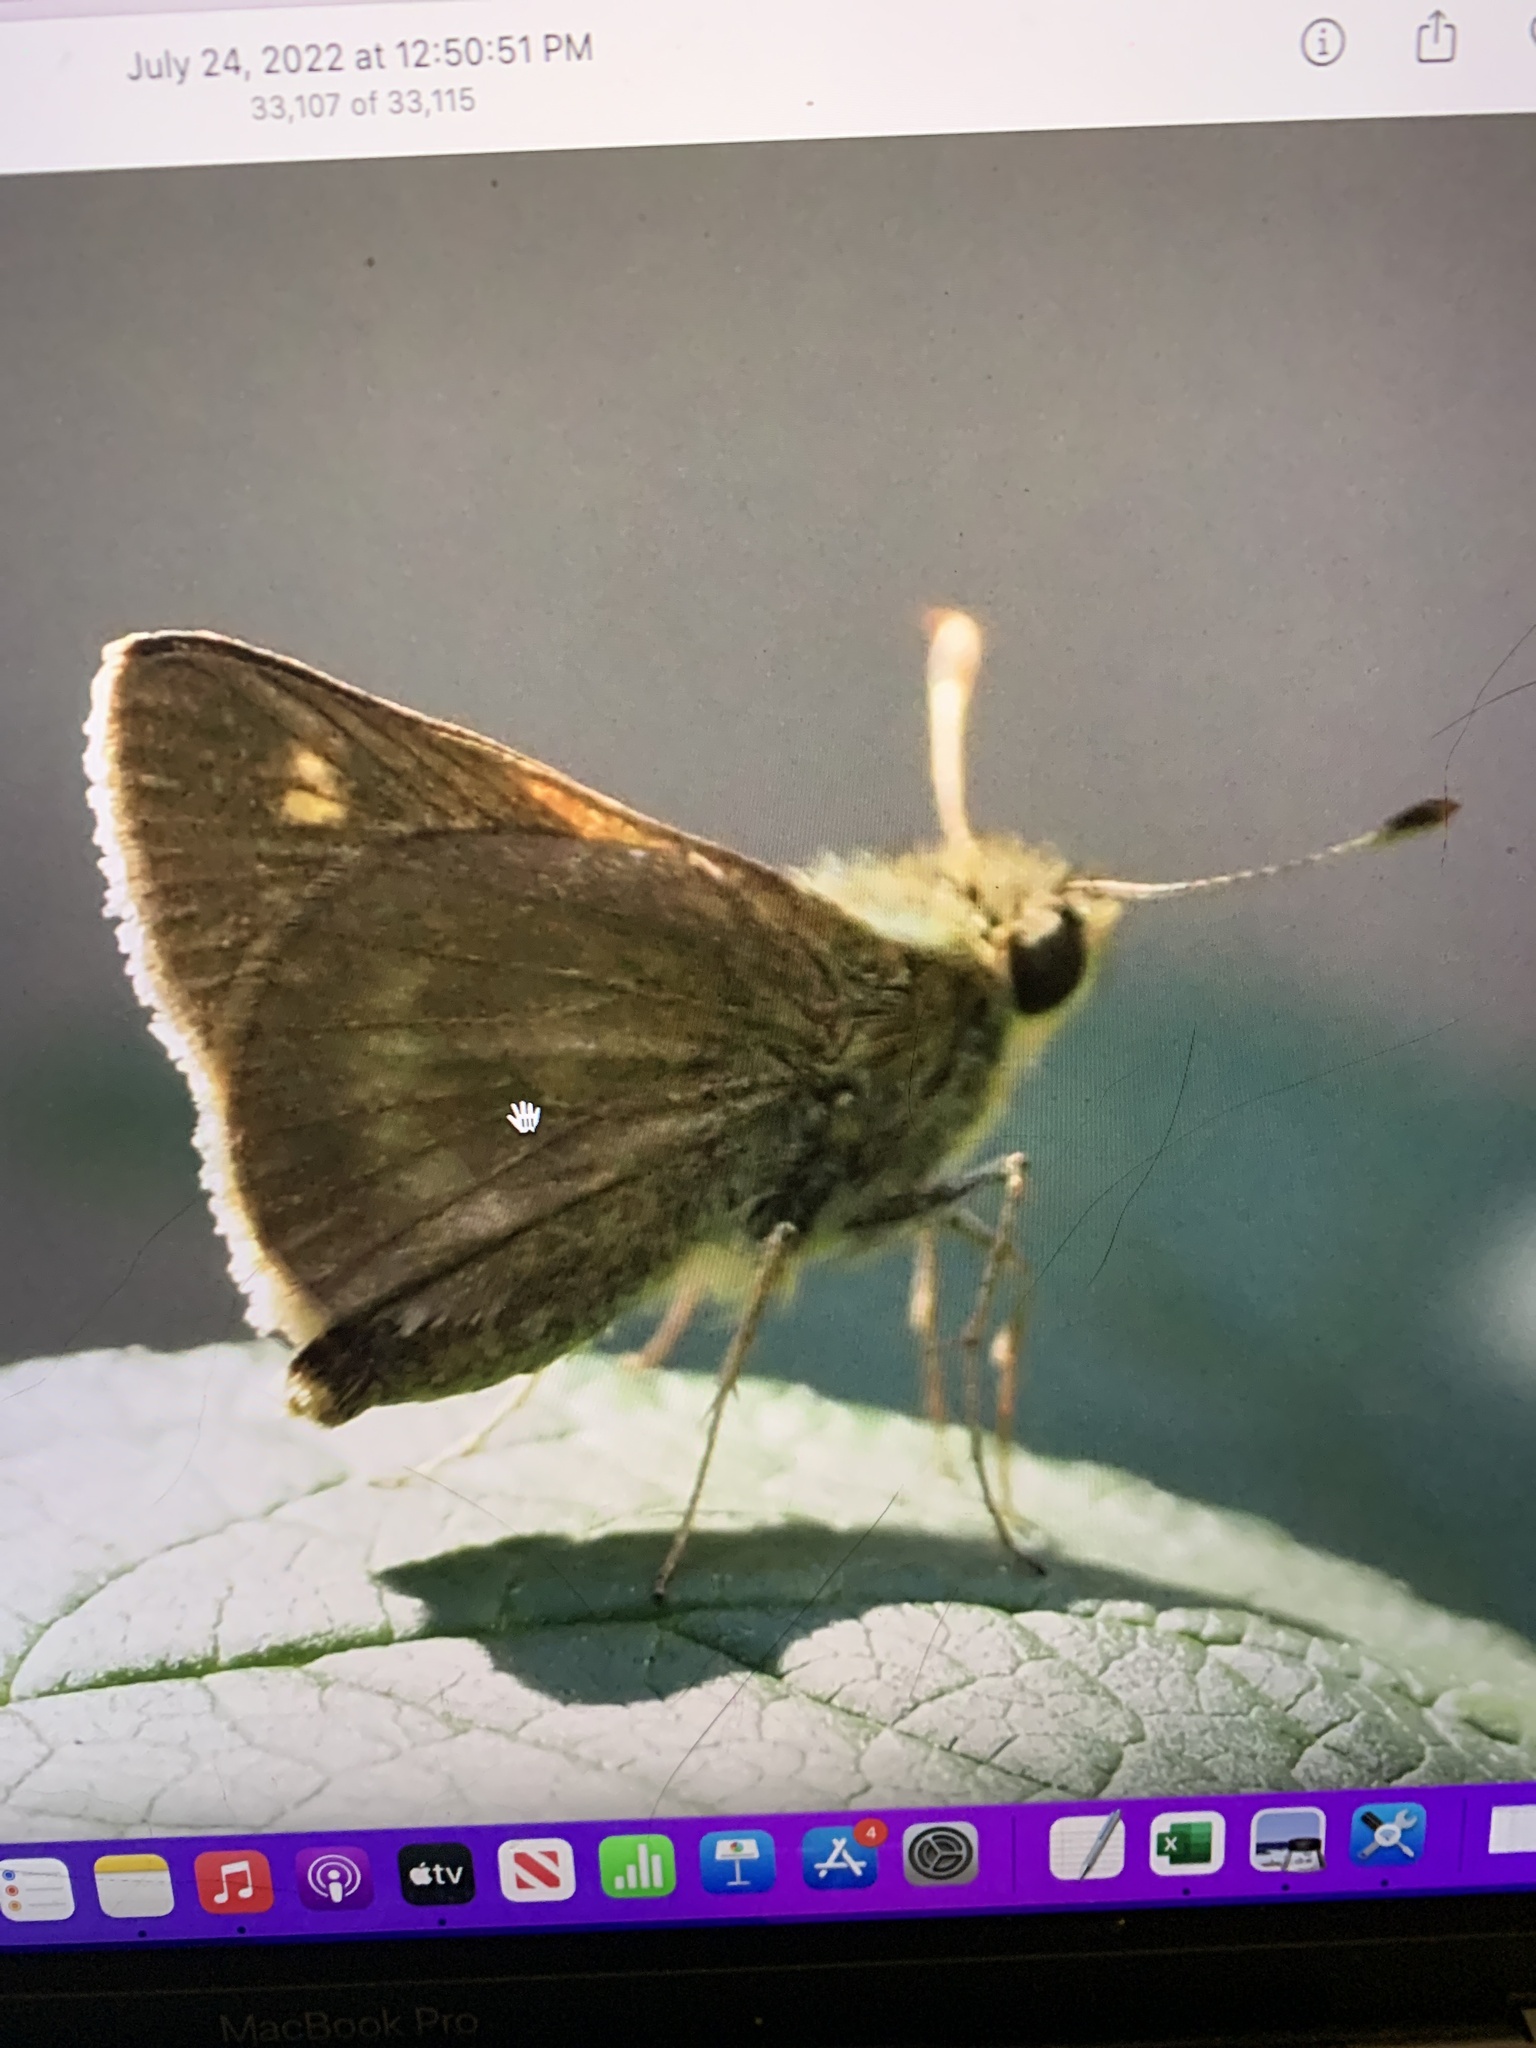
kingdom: Animalia
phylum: Arthropoda
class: Insecta
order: Lepidoptera
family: Hesperiidae
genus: Polites
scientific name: Polites egeremet
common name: Northern broken-dash
